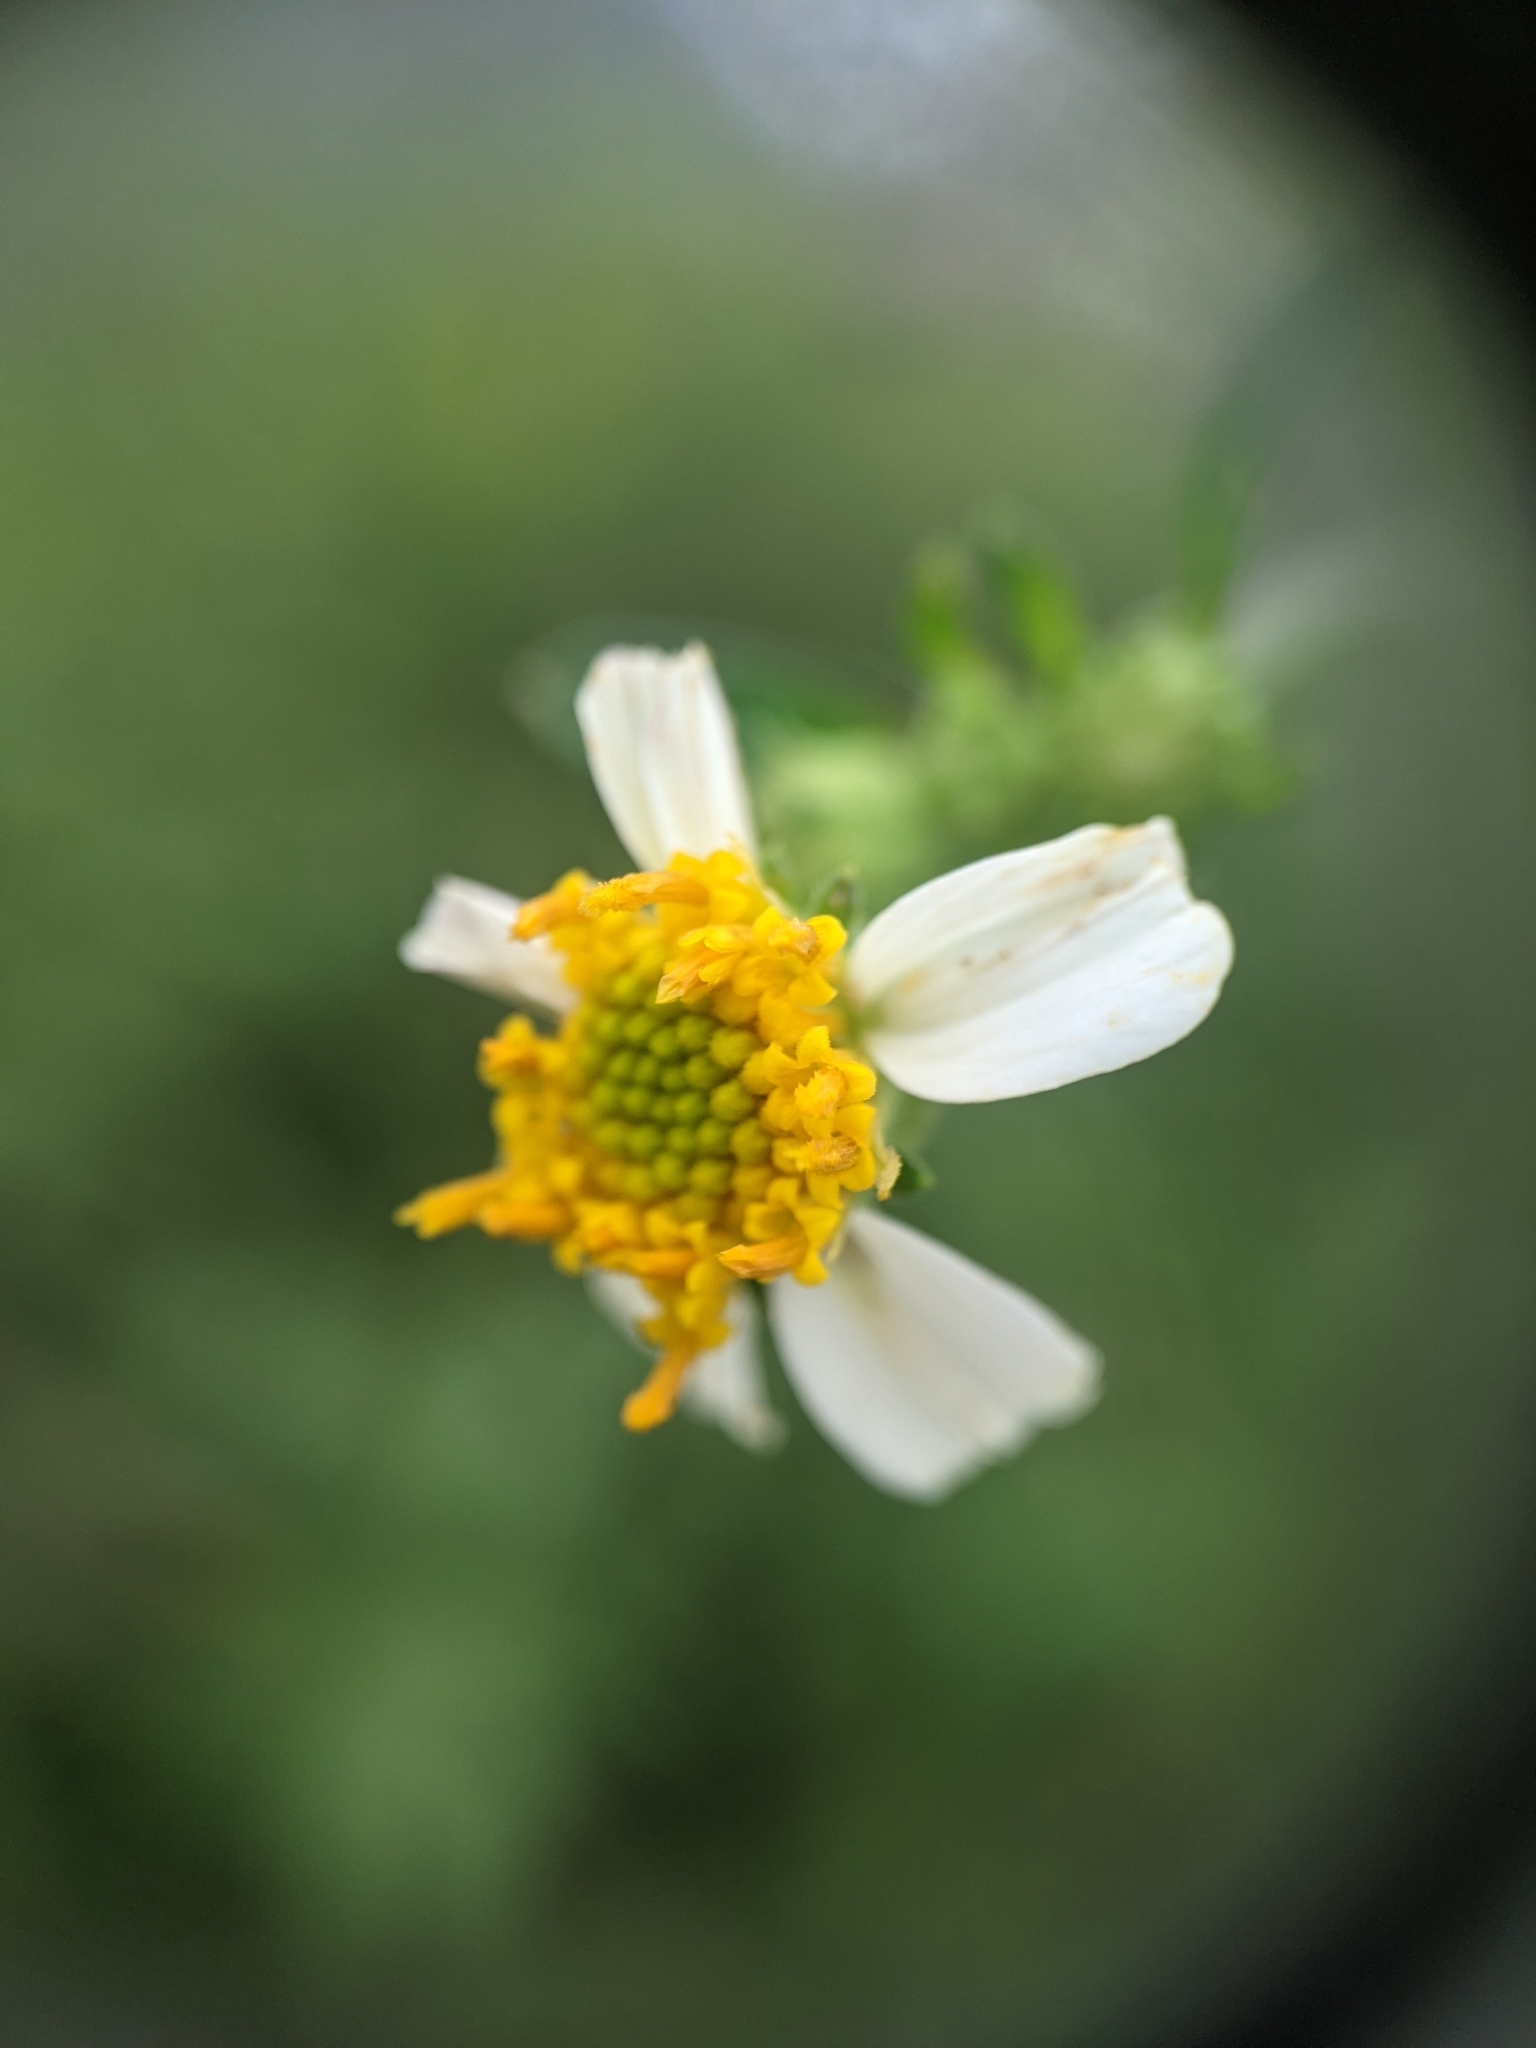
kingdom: Plantae
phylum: Tracheophyta
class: Magnoliopsida
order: Asterales
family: Asteraceae
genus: Bidens
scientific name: Bidens alba
